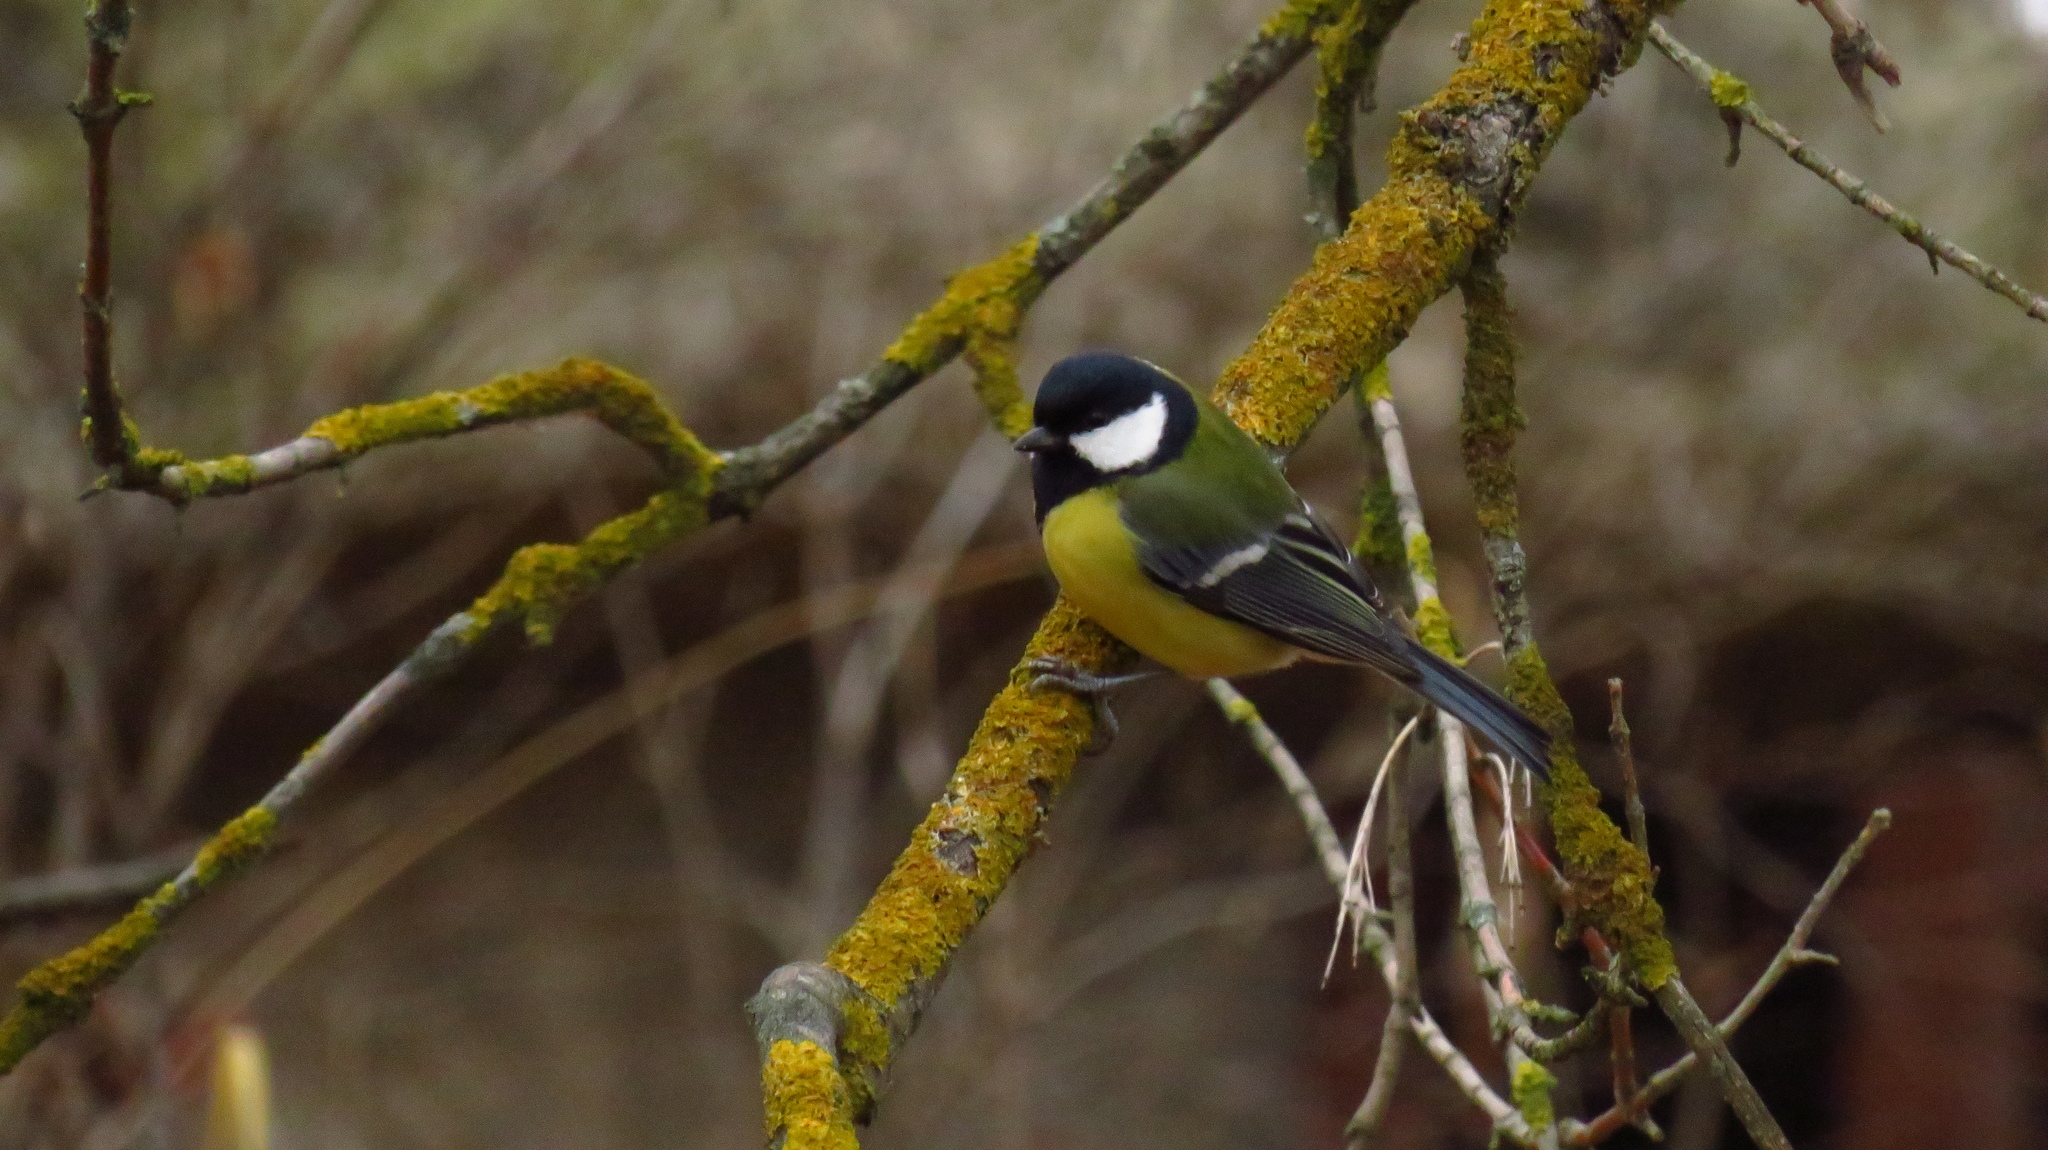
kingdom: Animalia
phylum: Chordata
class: Aves
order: Passeriformes
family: Paridae
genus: Parus
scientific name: Parus major
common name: Great tit
